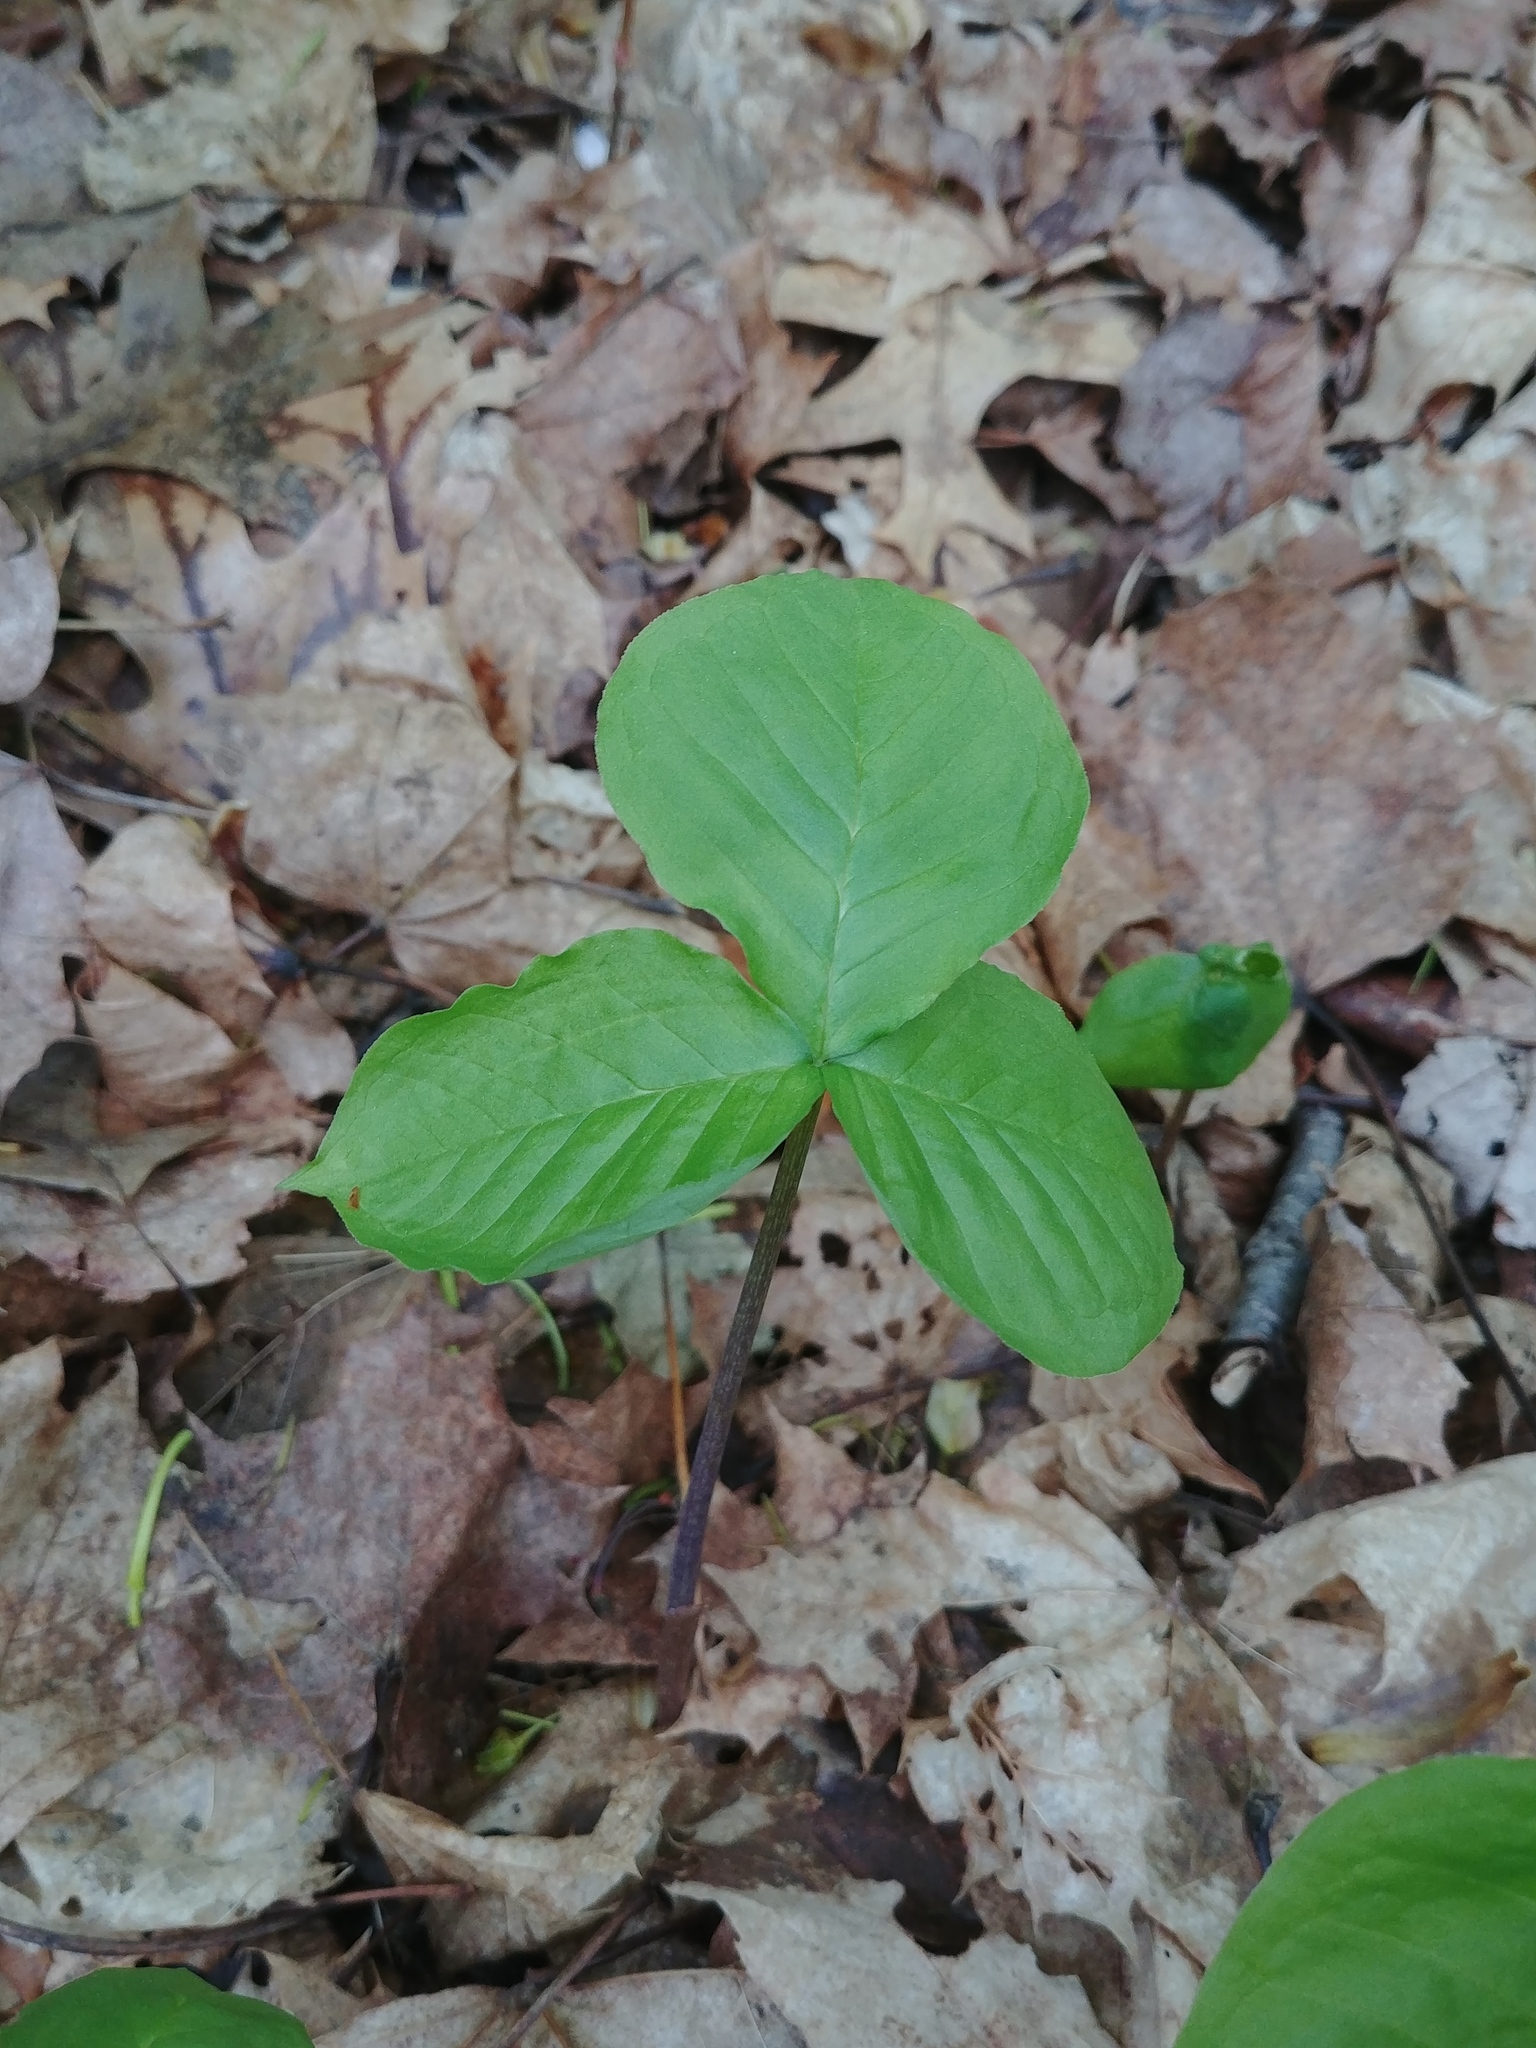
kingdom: Plantae
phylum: Tracheophyta
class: Liliopsida
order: Alismatales
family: Araceae
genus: Arisaema
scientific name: Arisaema triphyllum
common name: Jack-in-the-pulpit
